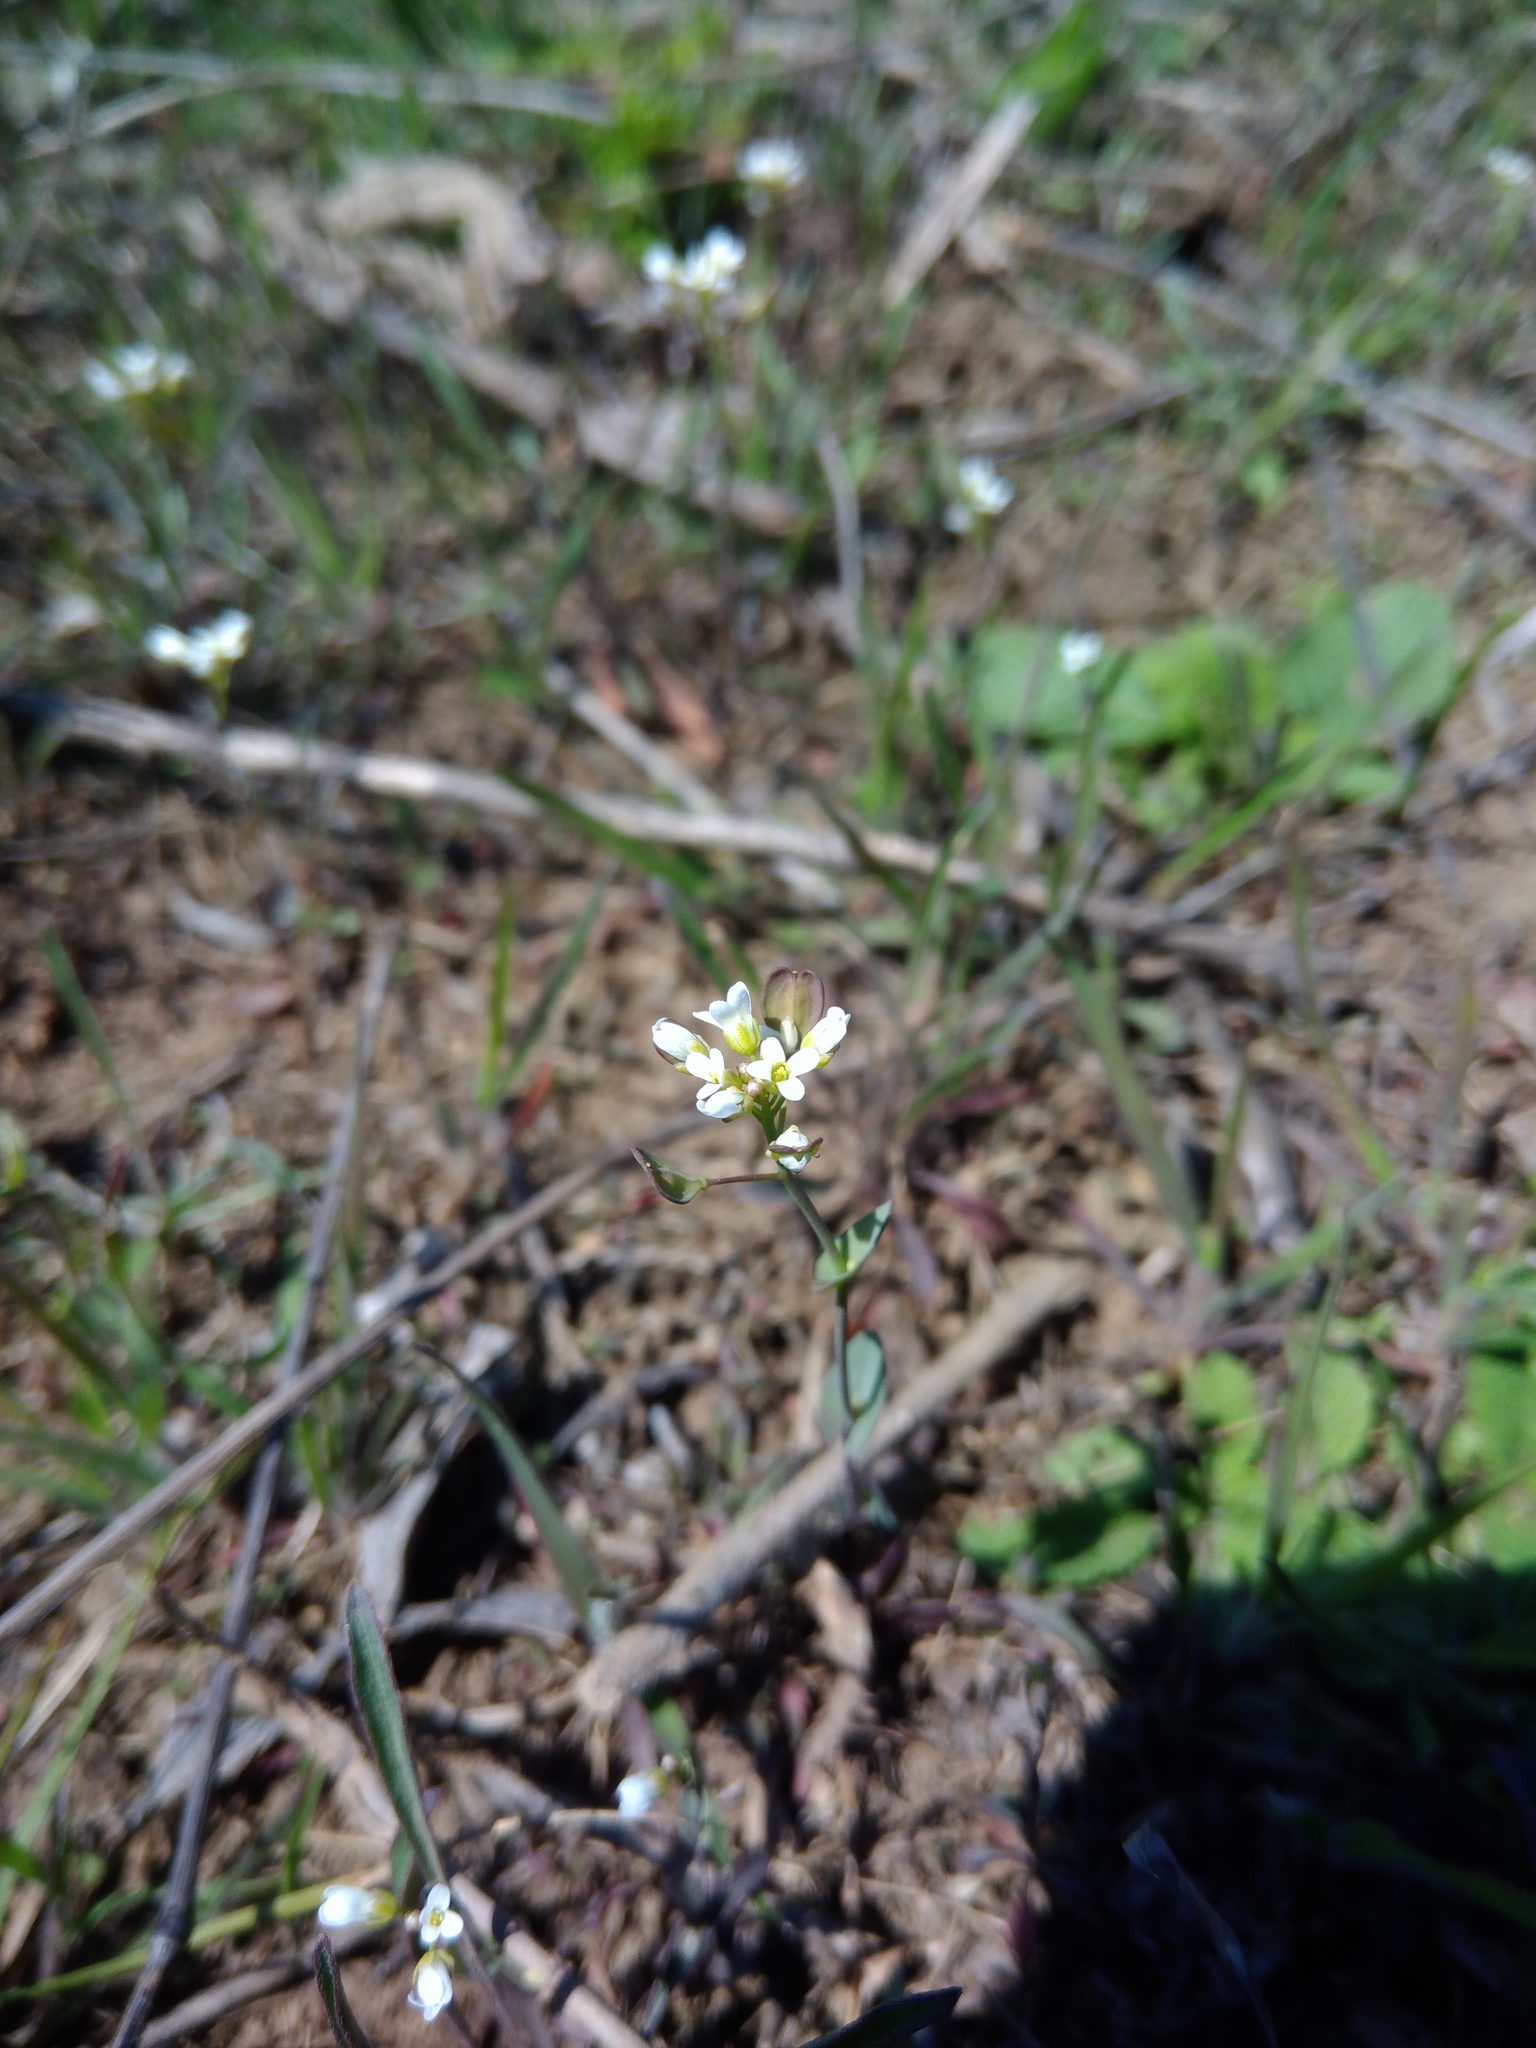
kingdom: Plantae
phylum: Tracheophyta
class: Magnoliopsida
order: Brassicales
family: Brassicaceae
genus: Noccaea
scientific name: Noccaea perfoliata
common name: Perfoliate pennycress
